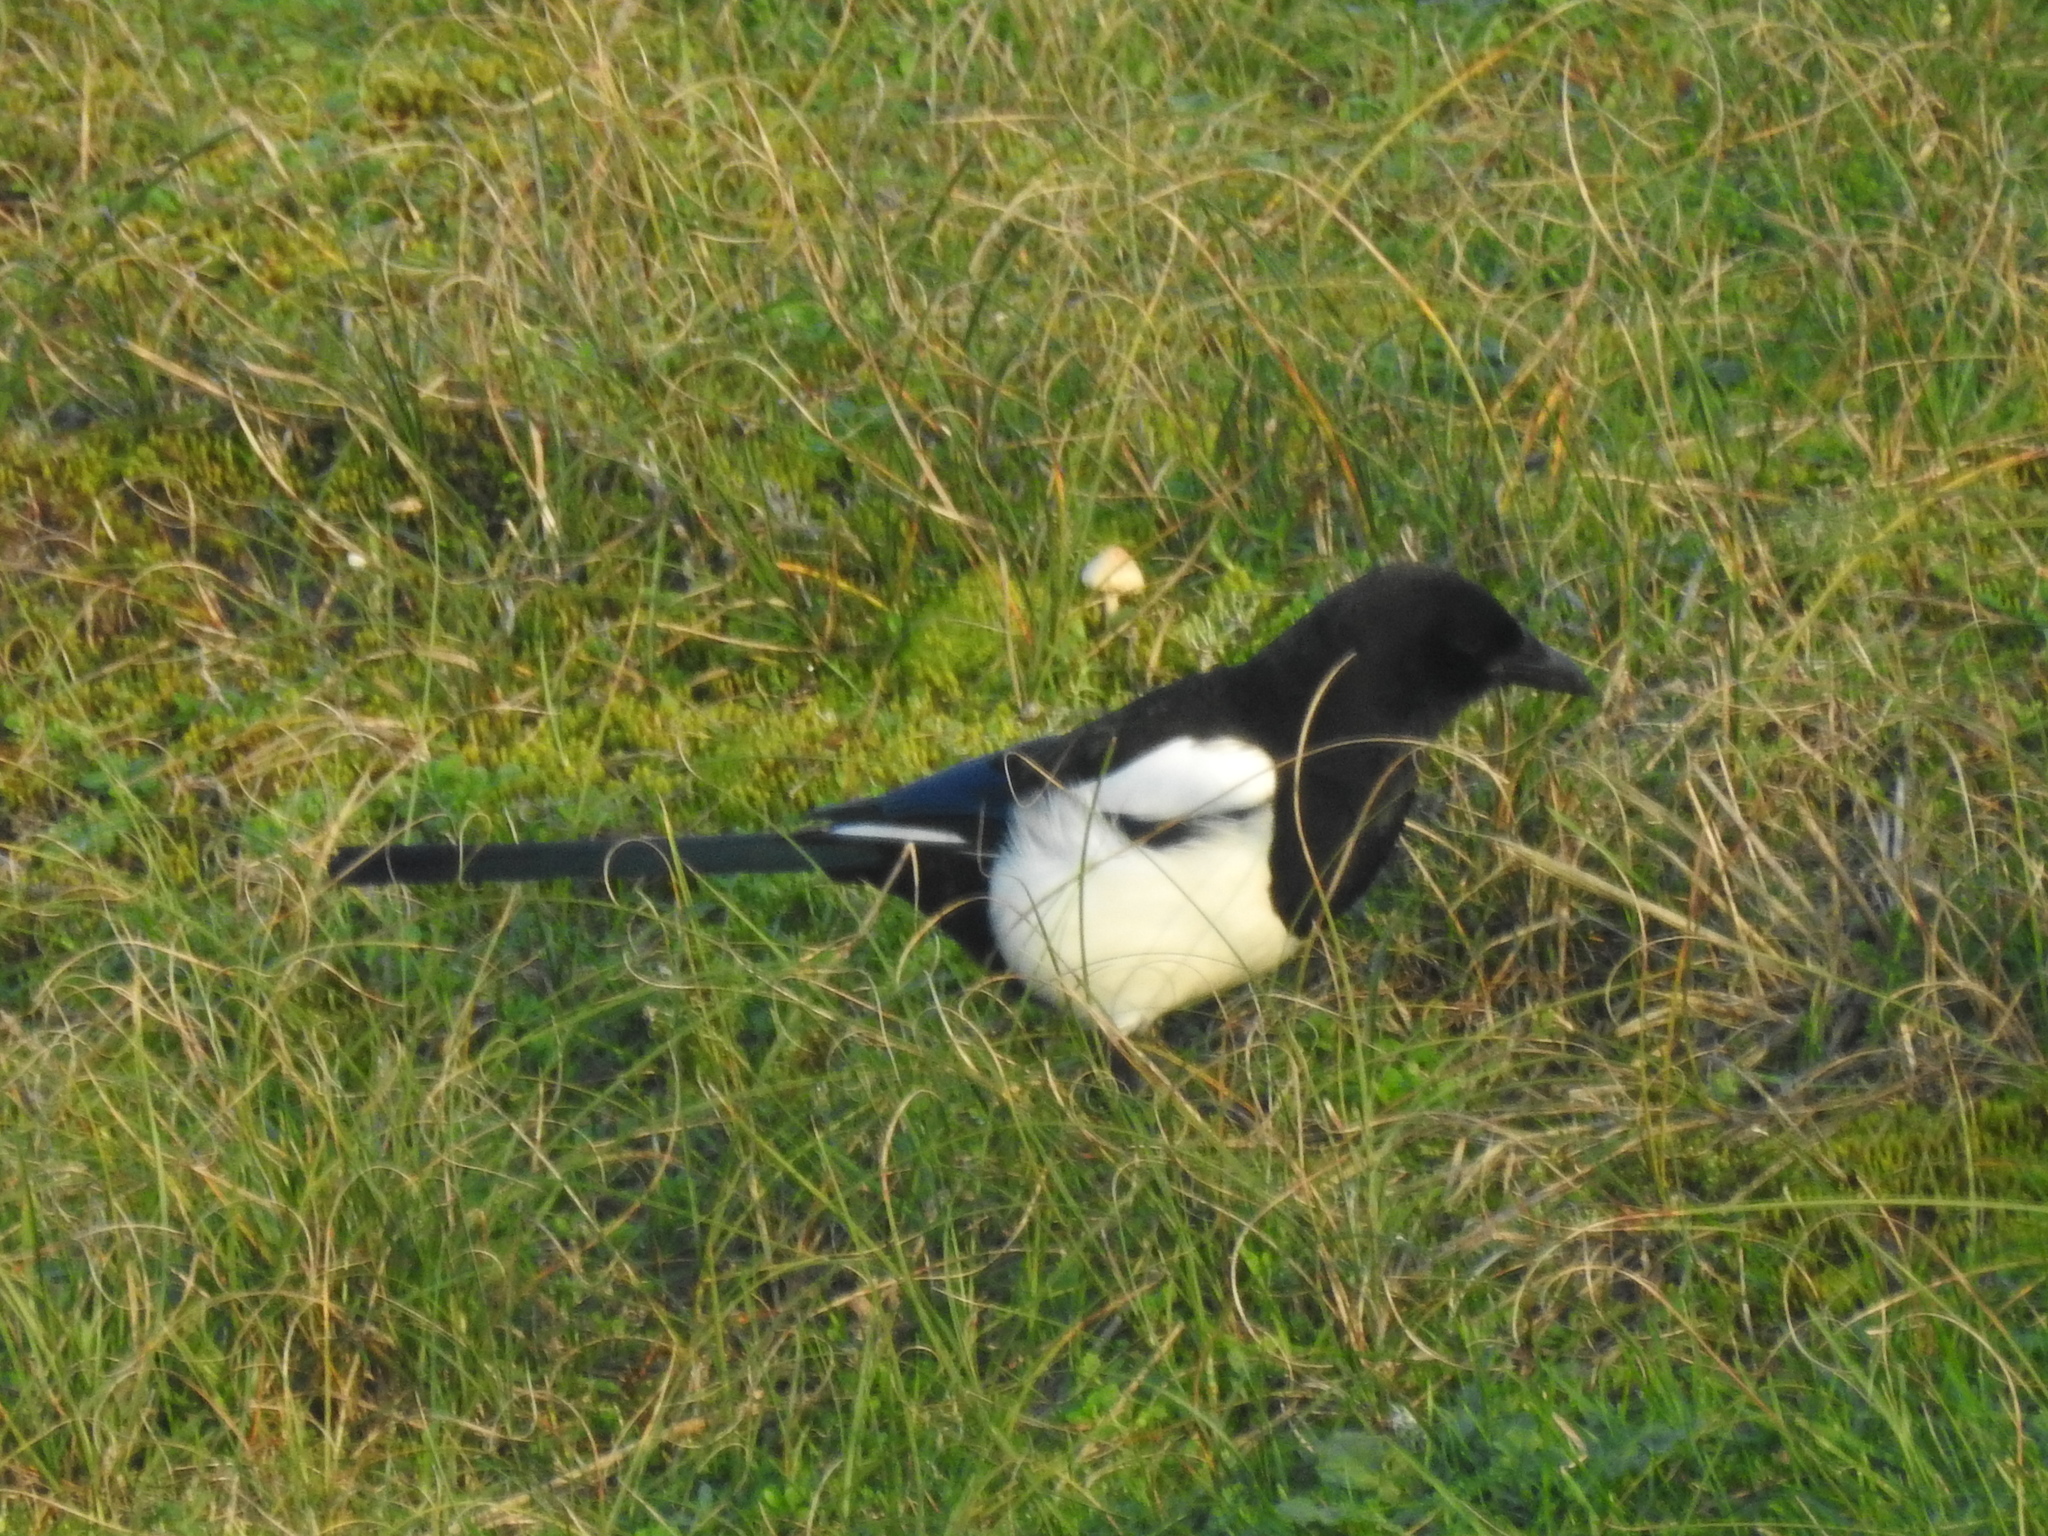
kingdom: Animalia
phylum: Chordata
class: Aves
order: Passeriformes
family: Corvidae
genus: Pica
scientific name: Pica pica
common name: Eurasian magpie
